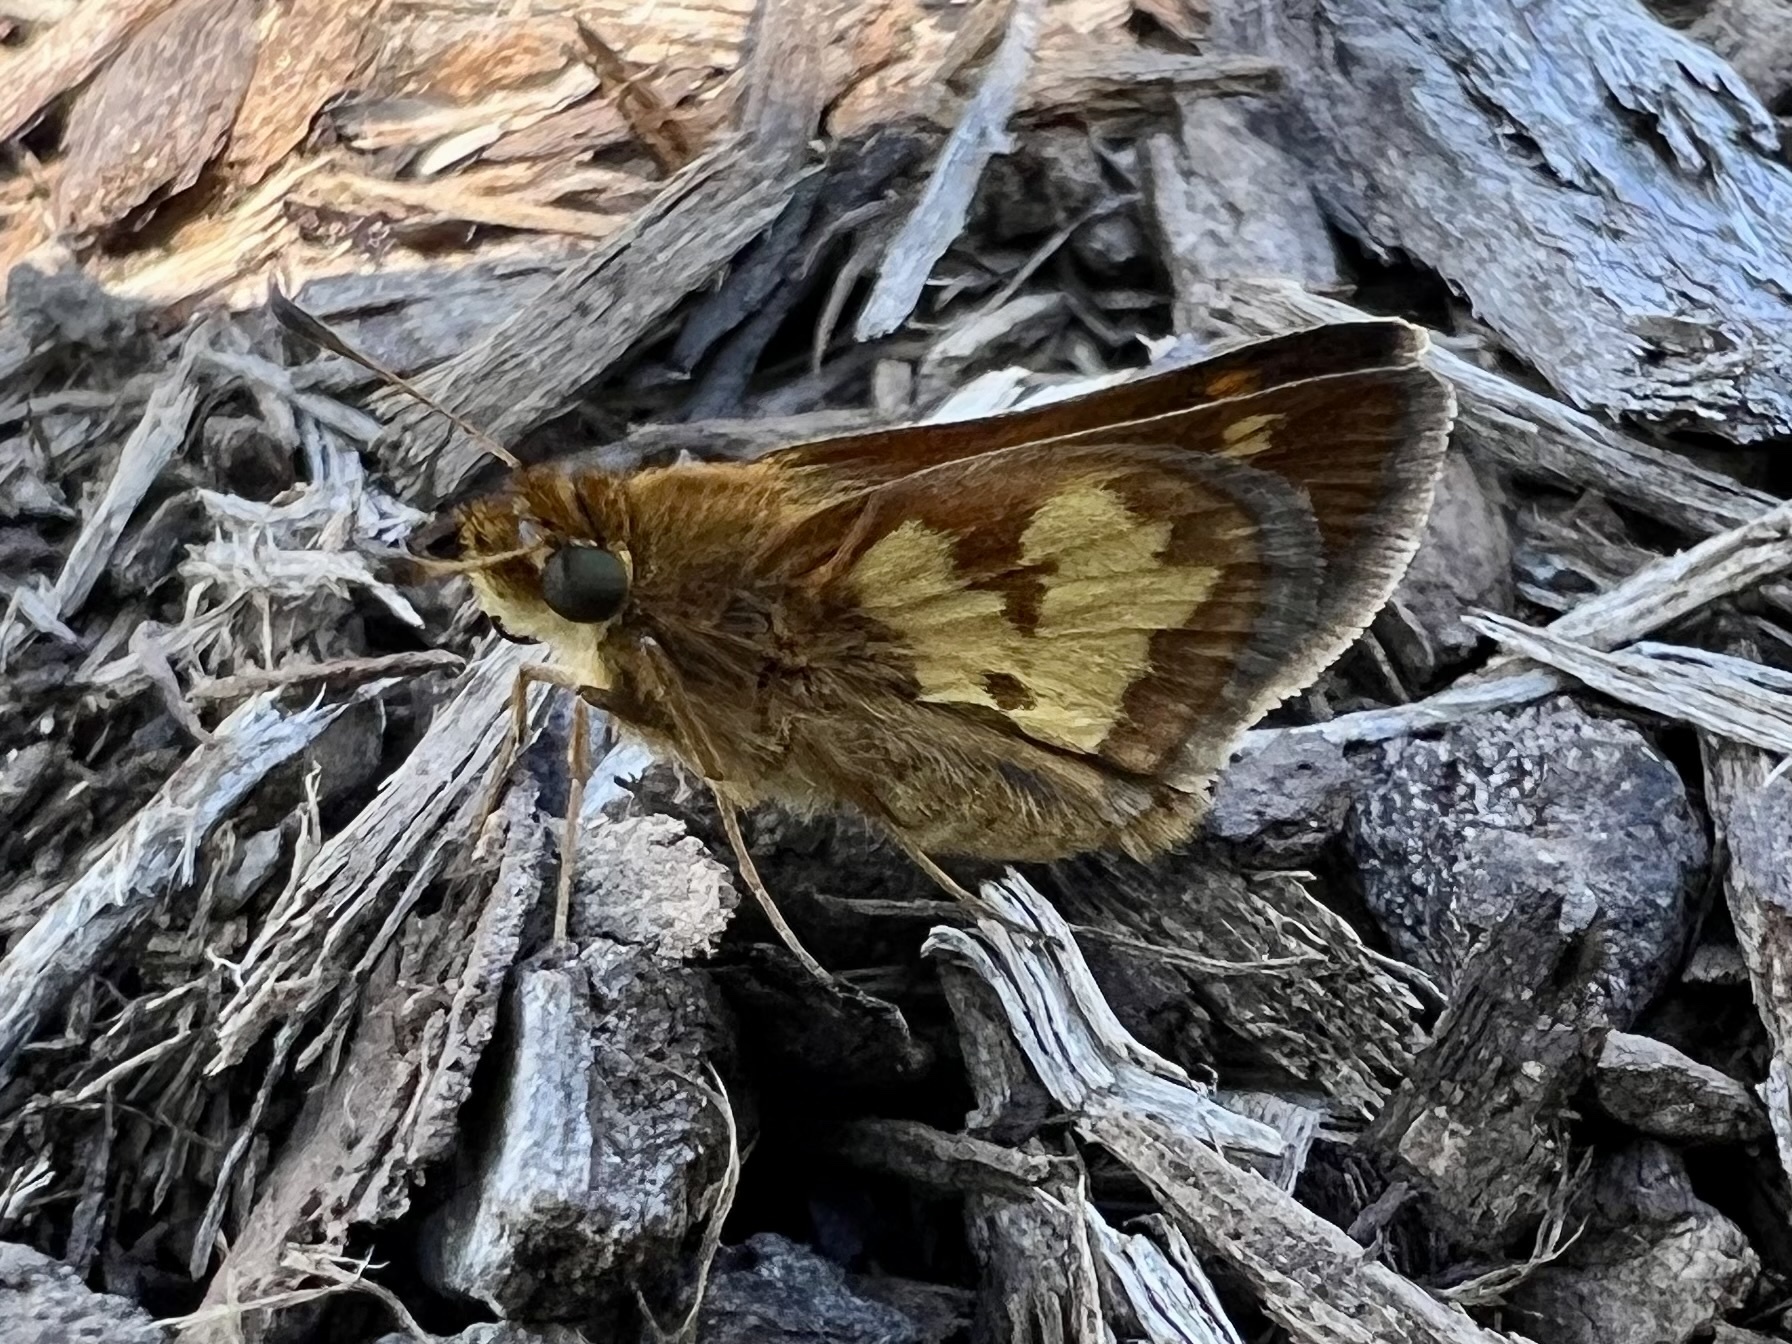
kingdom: Animalia
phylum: Arthropoda
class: Insecta
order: Lepidoptera
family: Hesperiidae
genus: Polites
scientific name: Polites coras
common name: Peck's skipper
